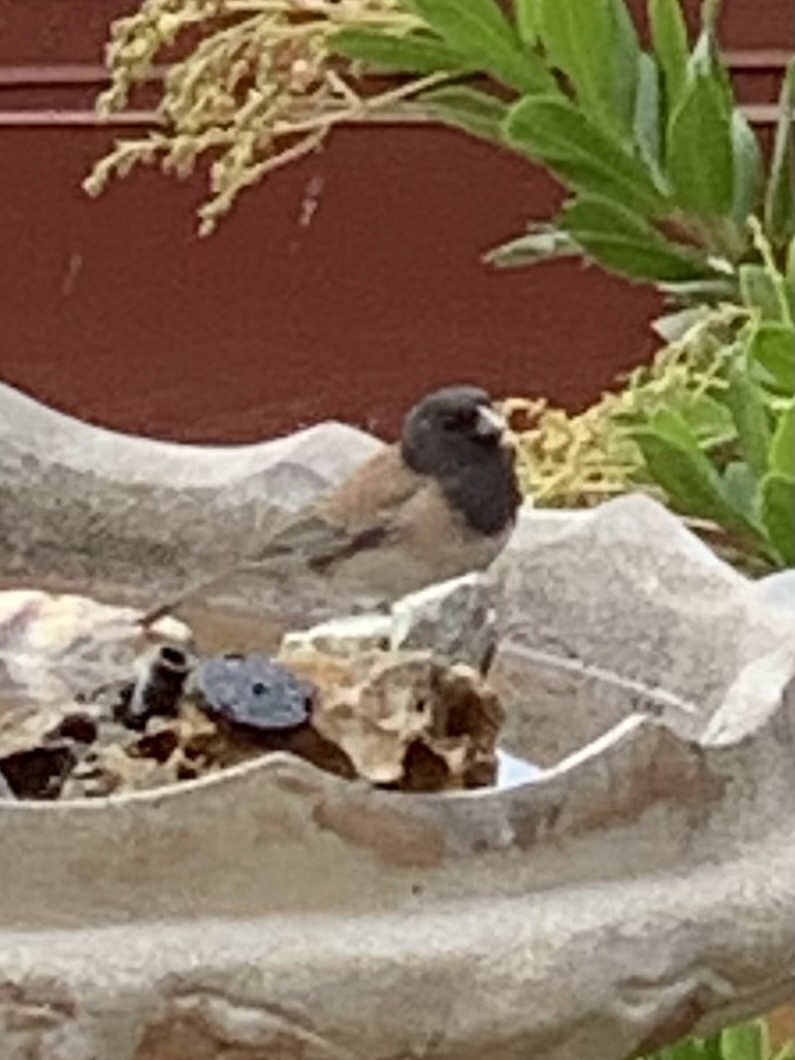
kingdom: Animalia
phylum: Chordata
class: Aves
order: Passeriformes
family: Passerellidae
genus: Junco
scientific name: Junco hyemalis
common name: Dark-eyed junco
